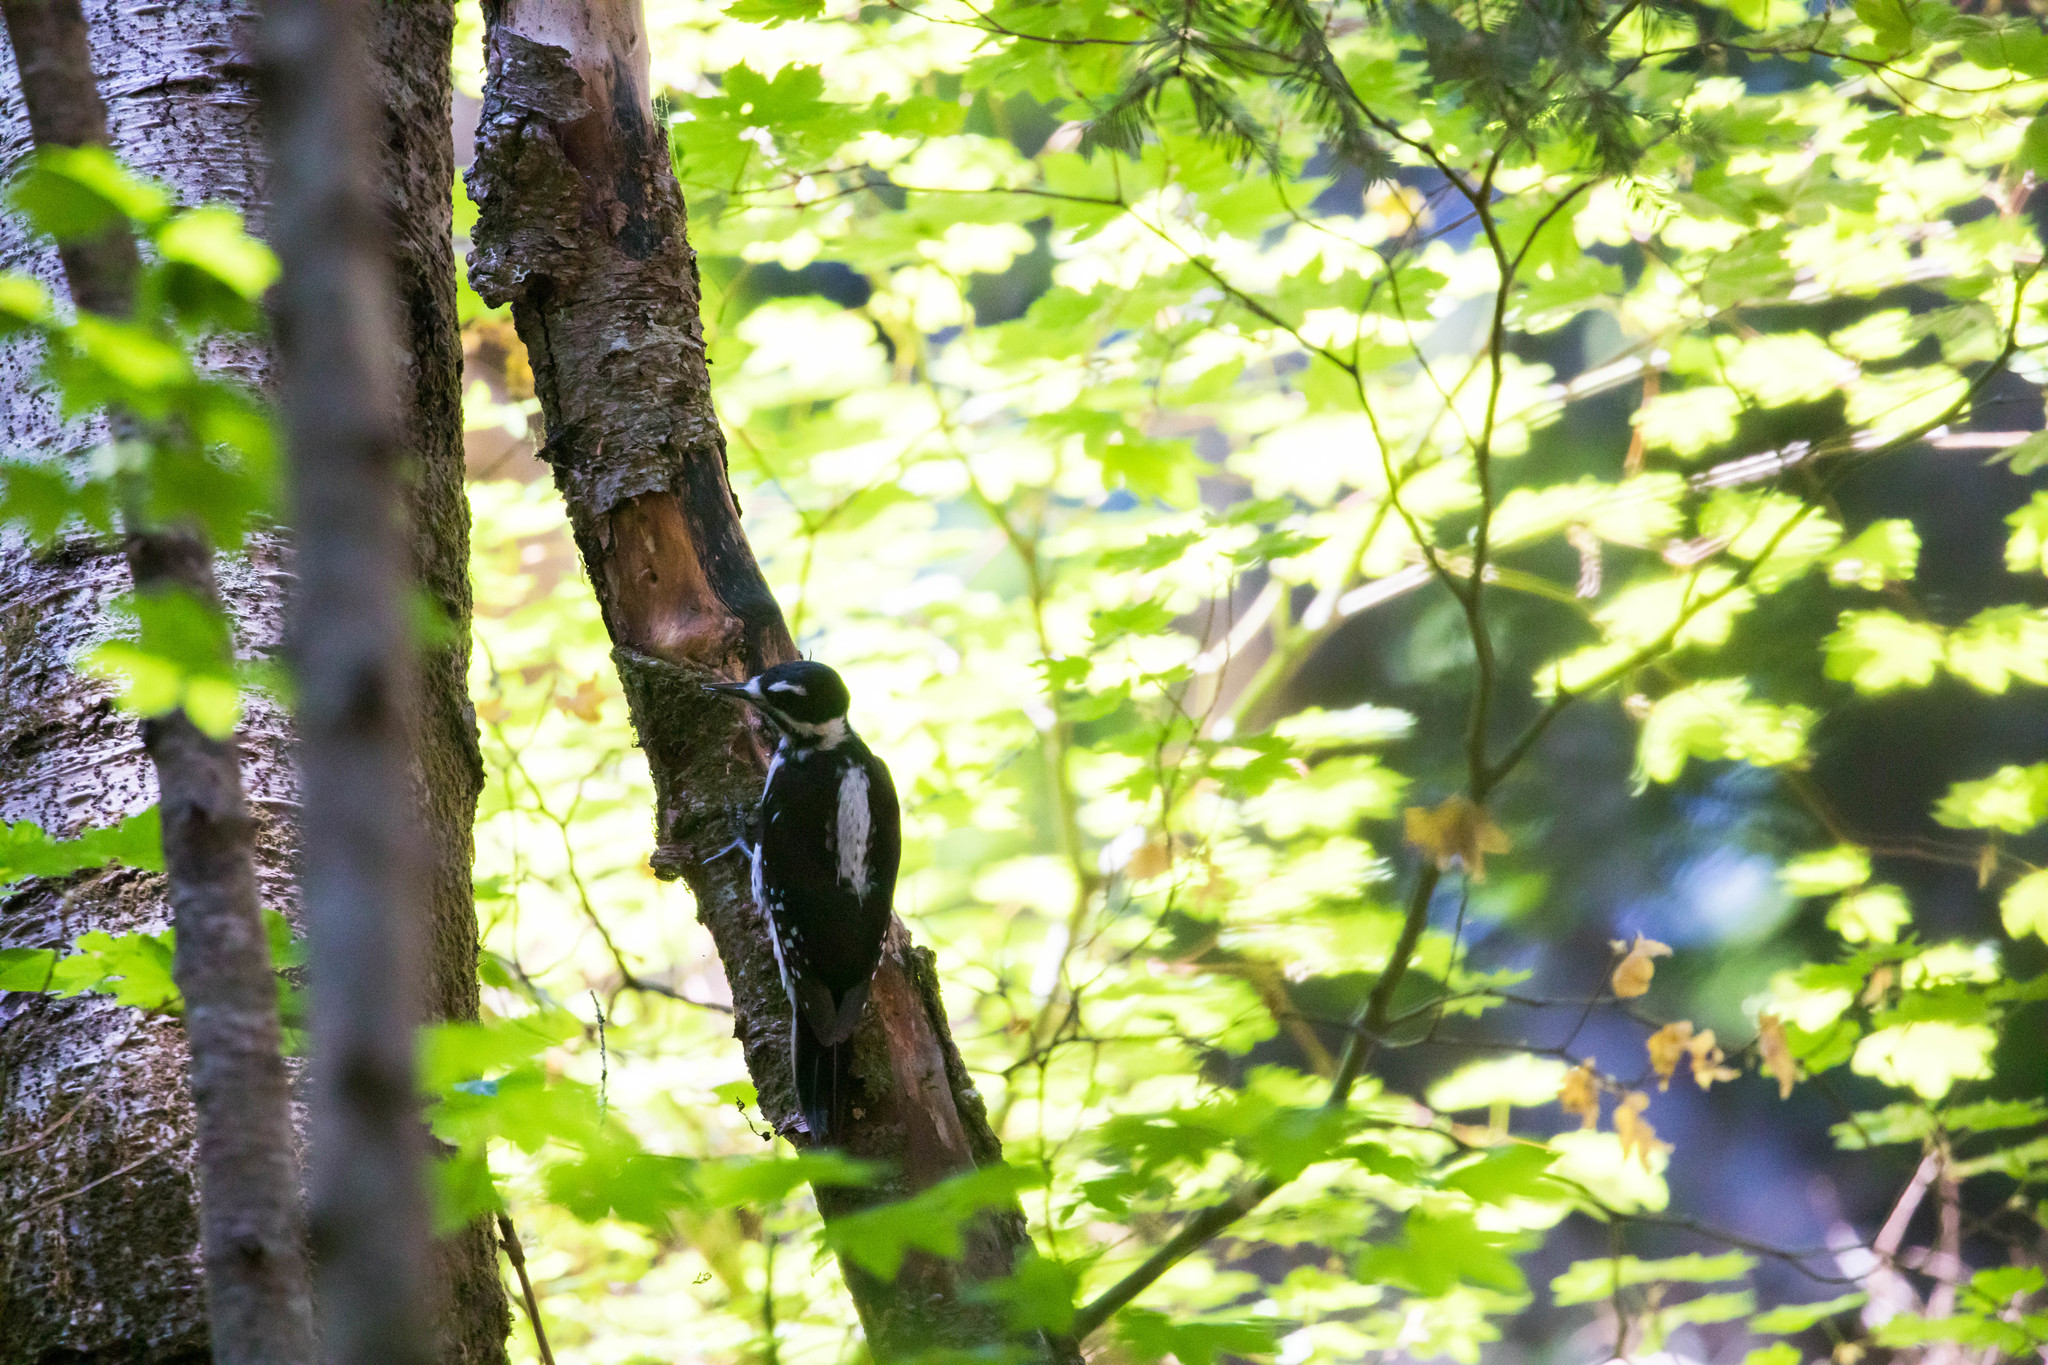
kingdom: Animalia
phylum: Chordata
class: Aves
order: Piciformes
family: Picidae
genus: Leuconotopicus
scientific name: Leuconotopicus villosus
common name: Hairy woodpecker
